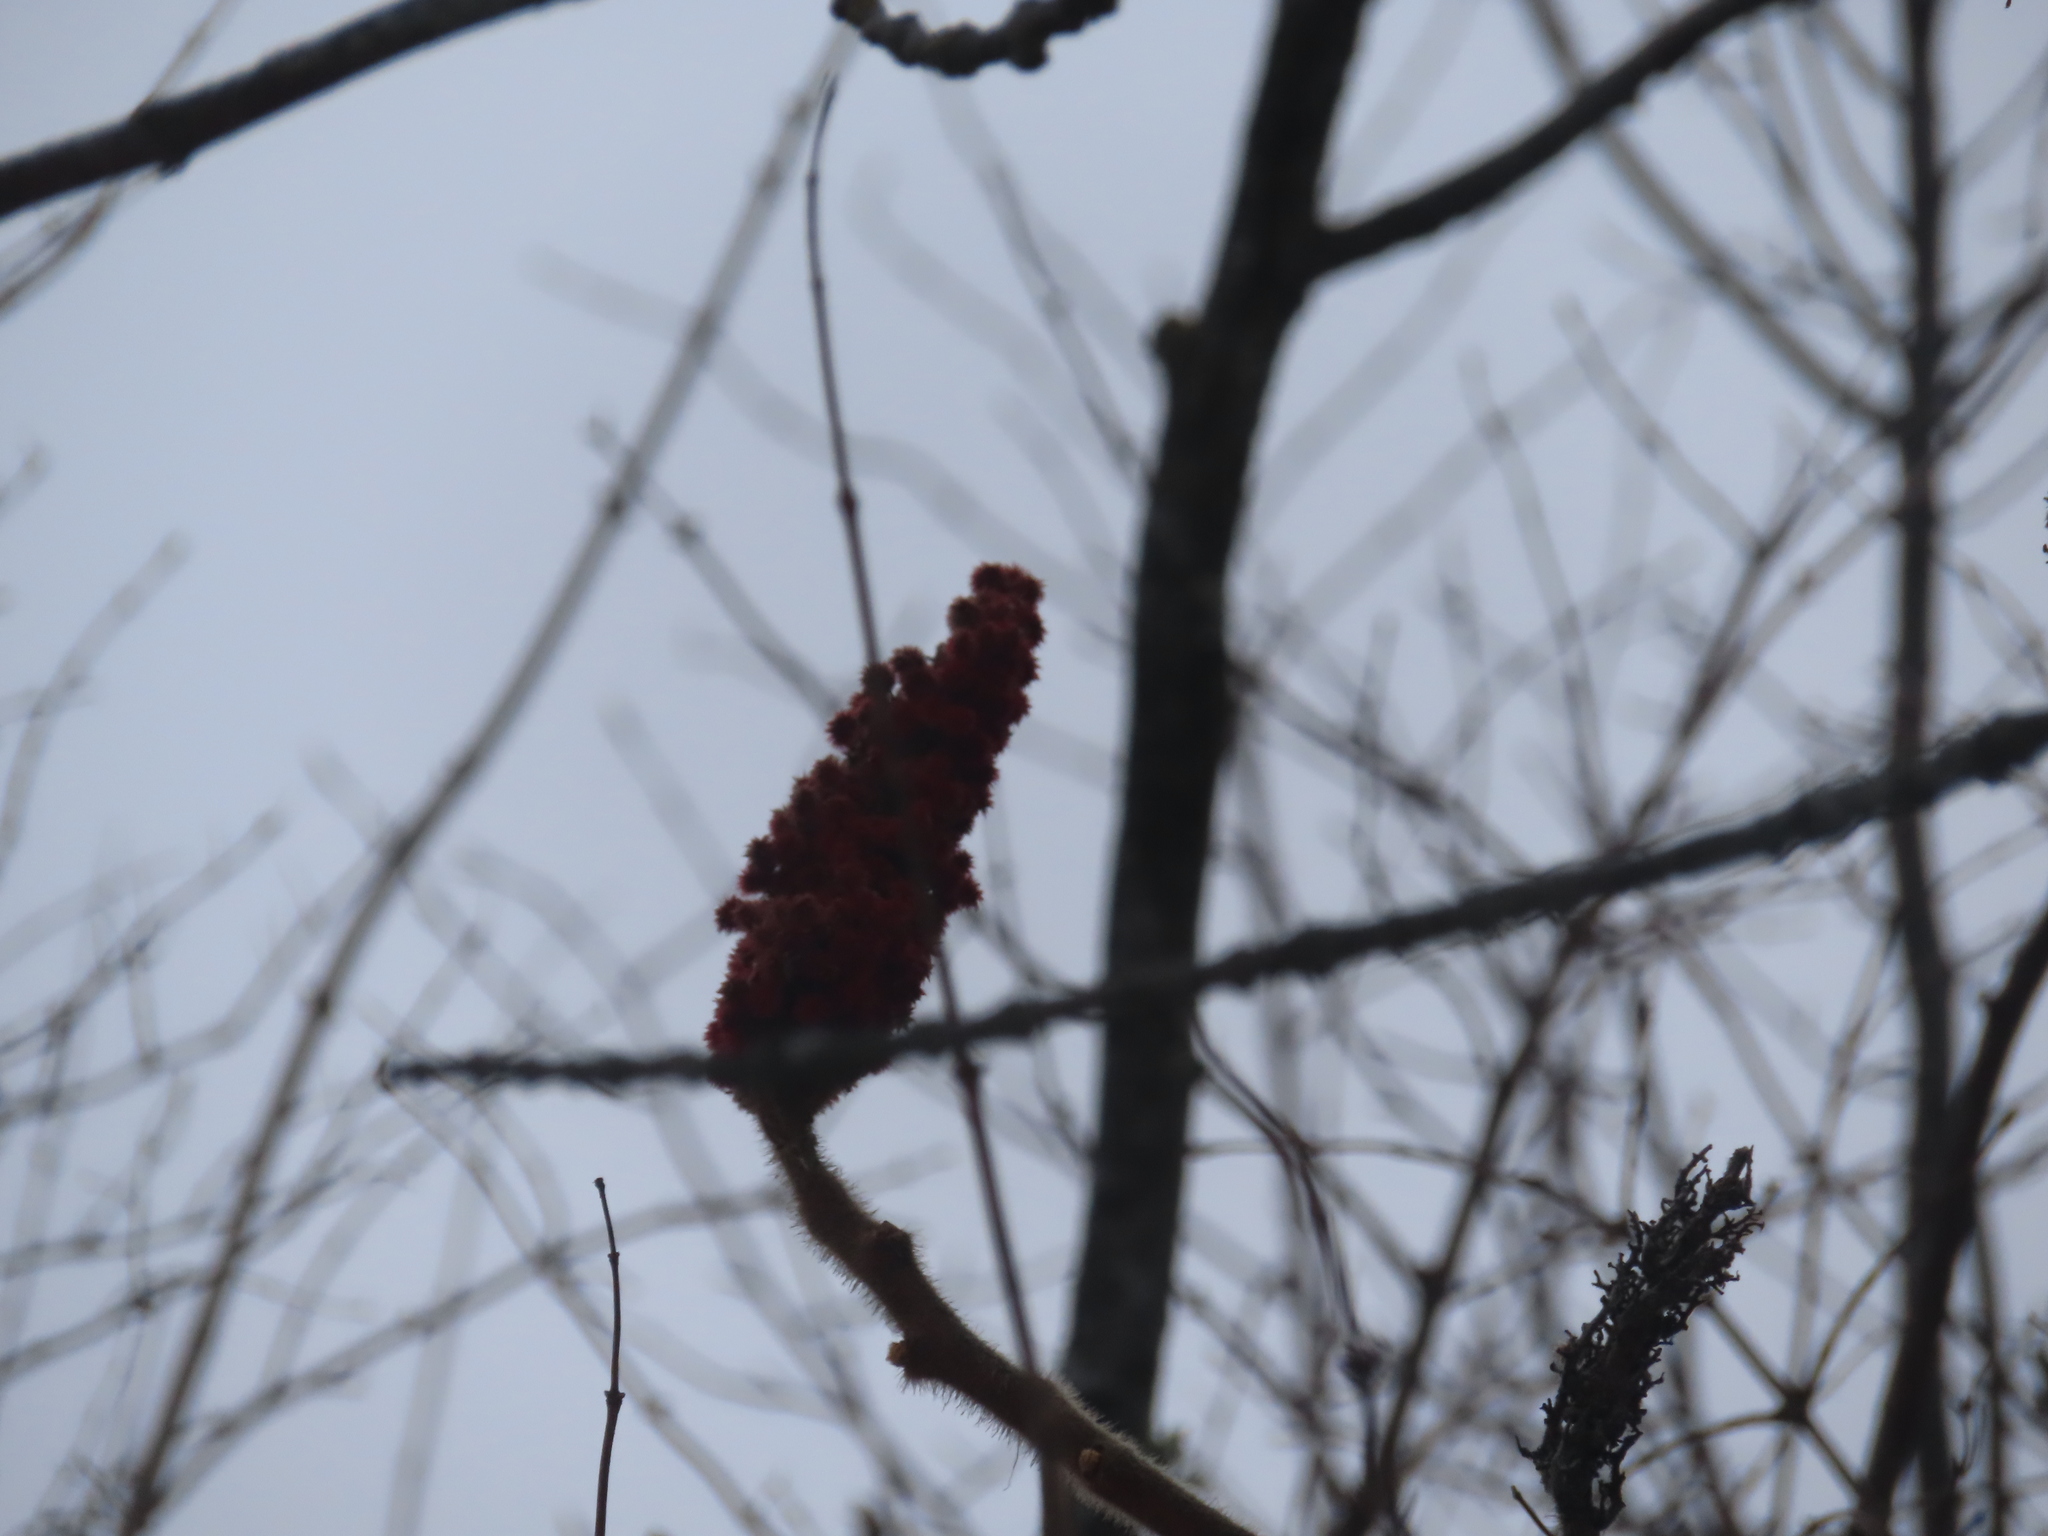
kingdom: Plantae
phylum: Tracheophyta
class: Magnoliopsida
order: Sapindales
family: Anacardiaceae
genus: Rhus
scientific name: Rhus typhina
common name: Staghorn sumac
